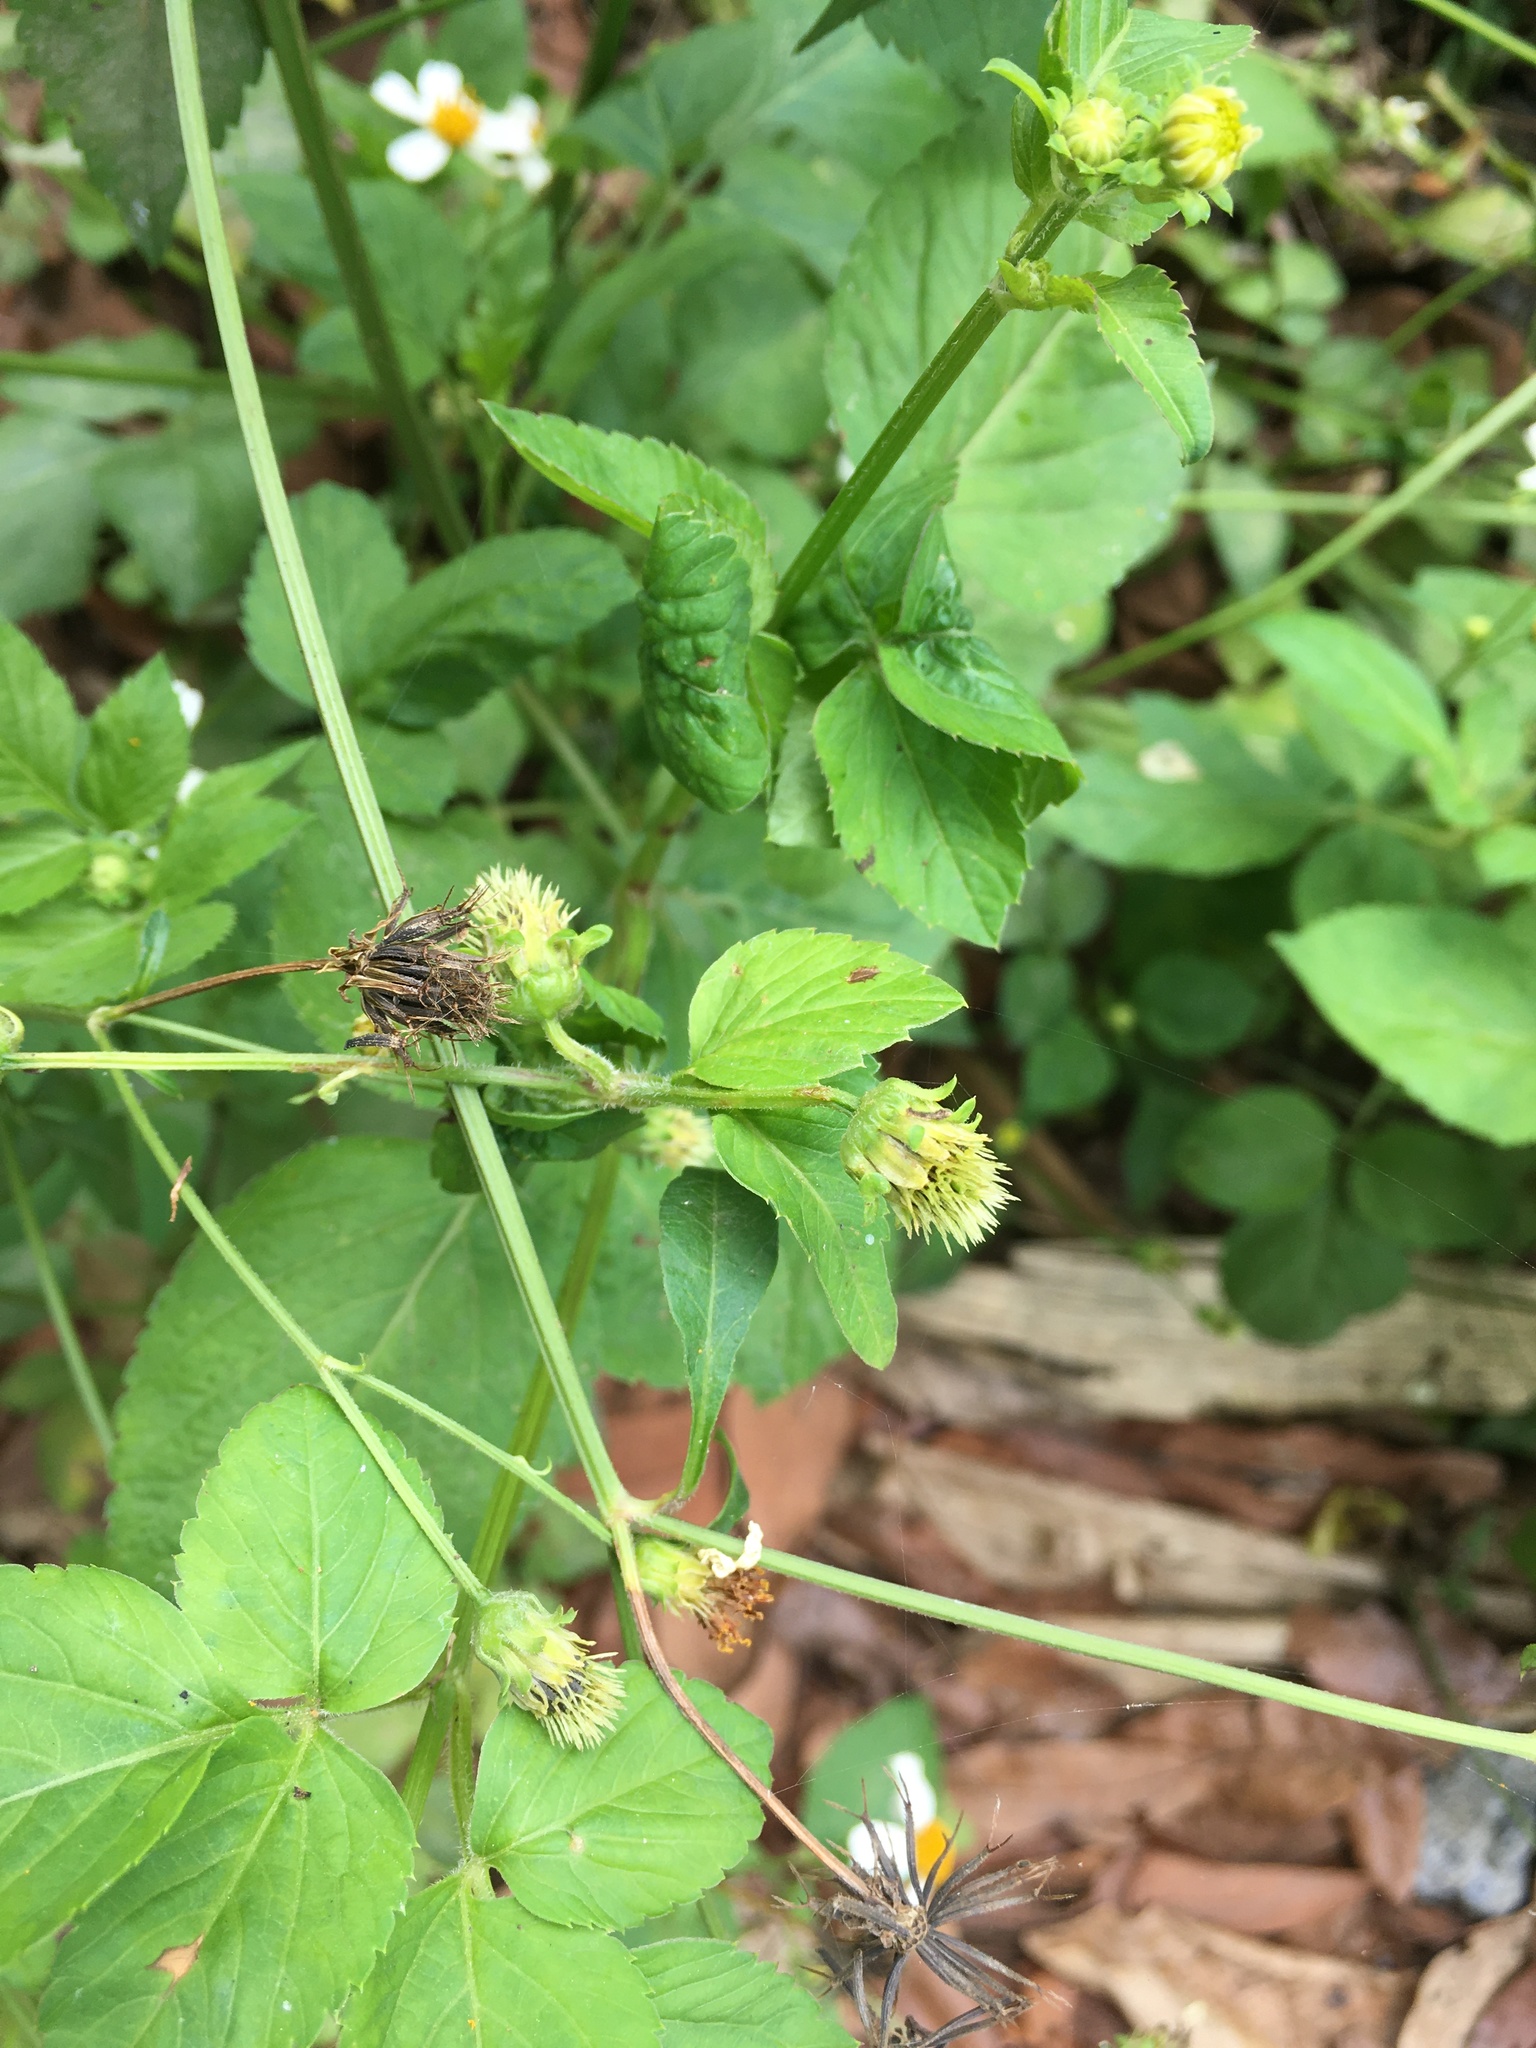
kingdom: Plantae
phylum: Tracheophyta
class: Magnoliopsida
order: Asterales
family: Asteraceae
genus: Bidens
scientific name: Bidens alba
